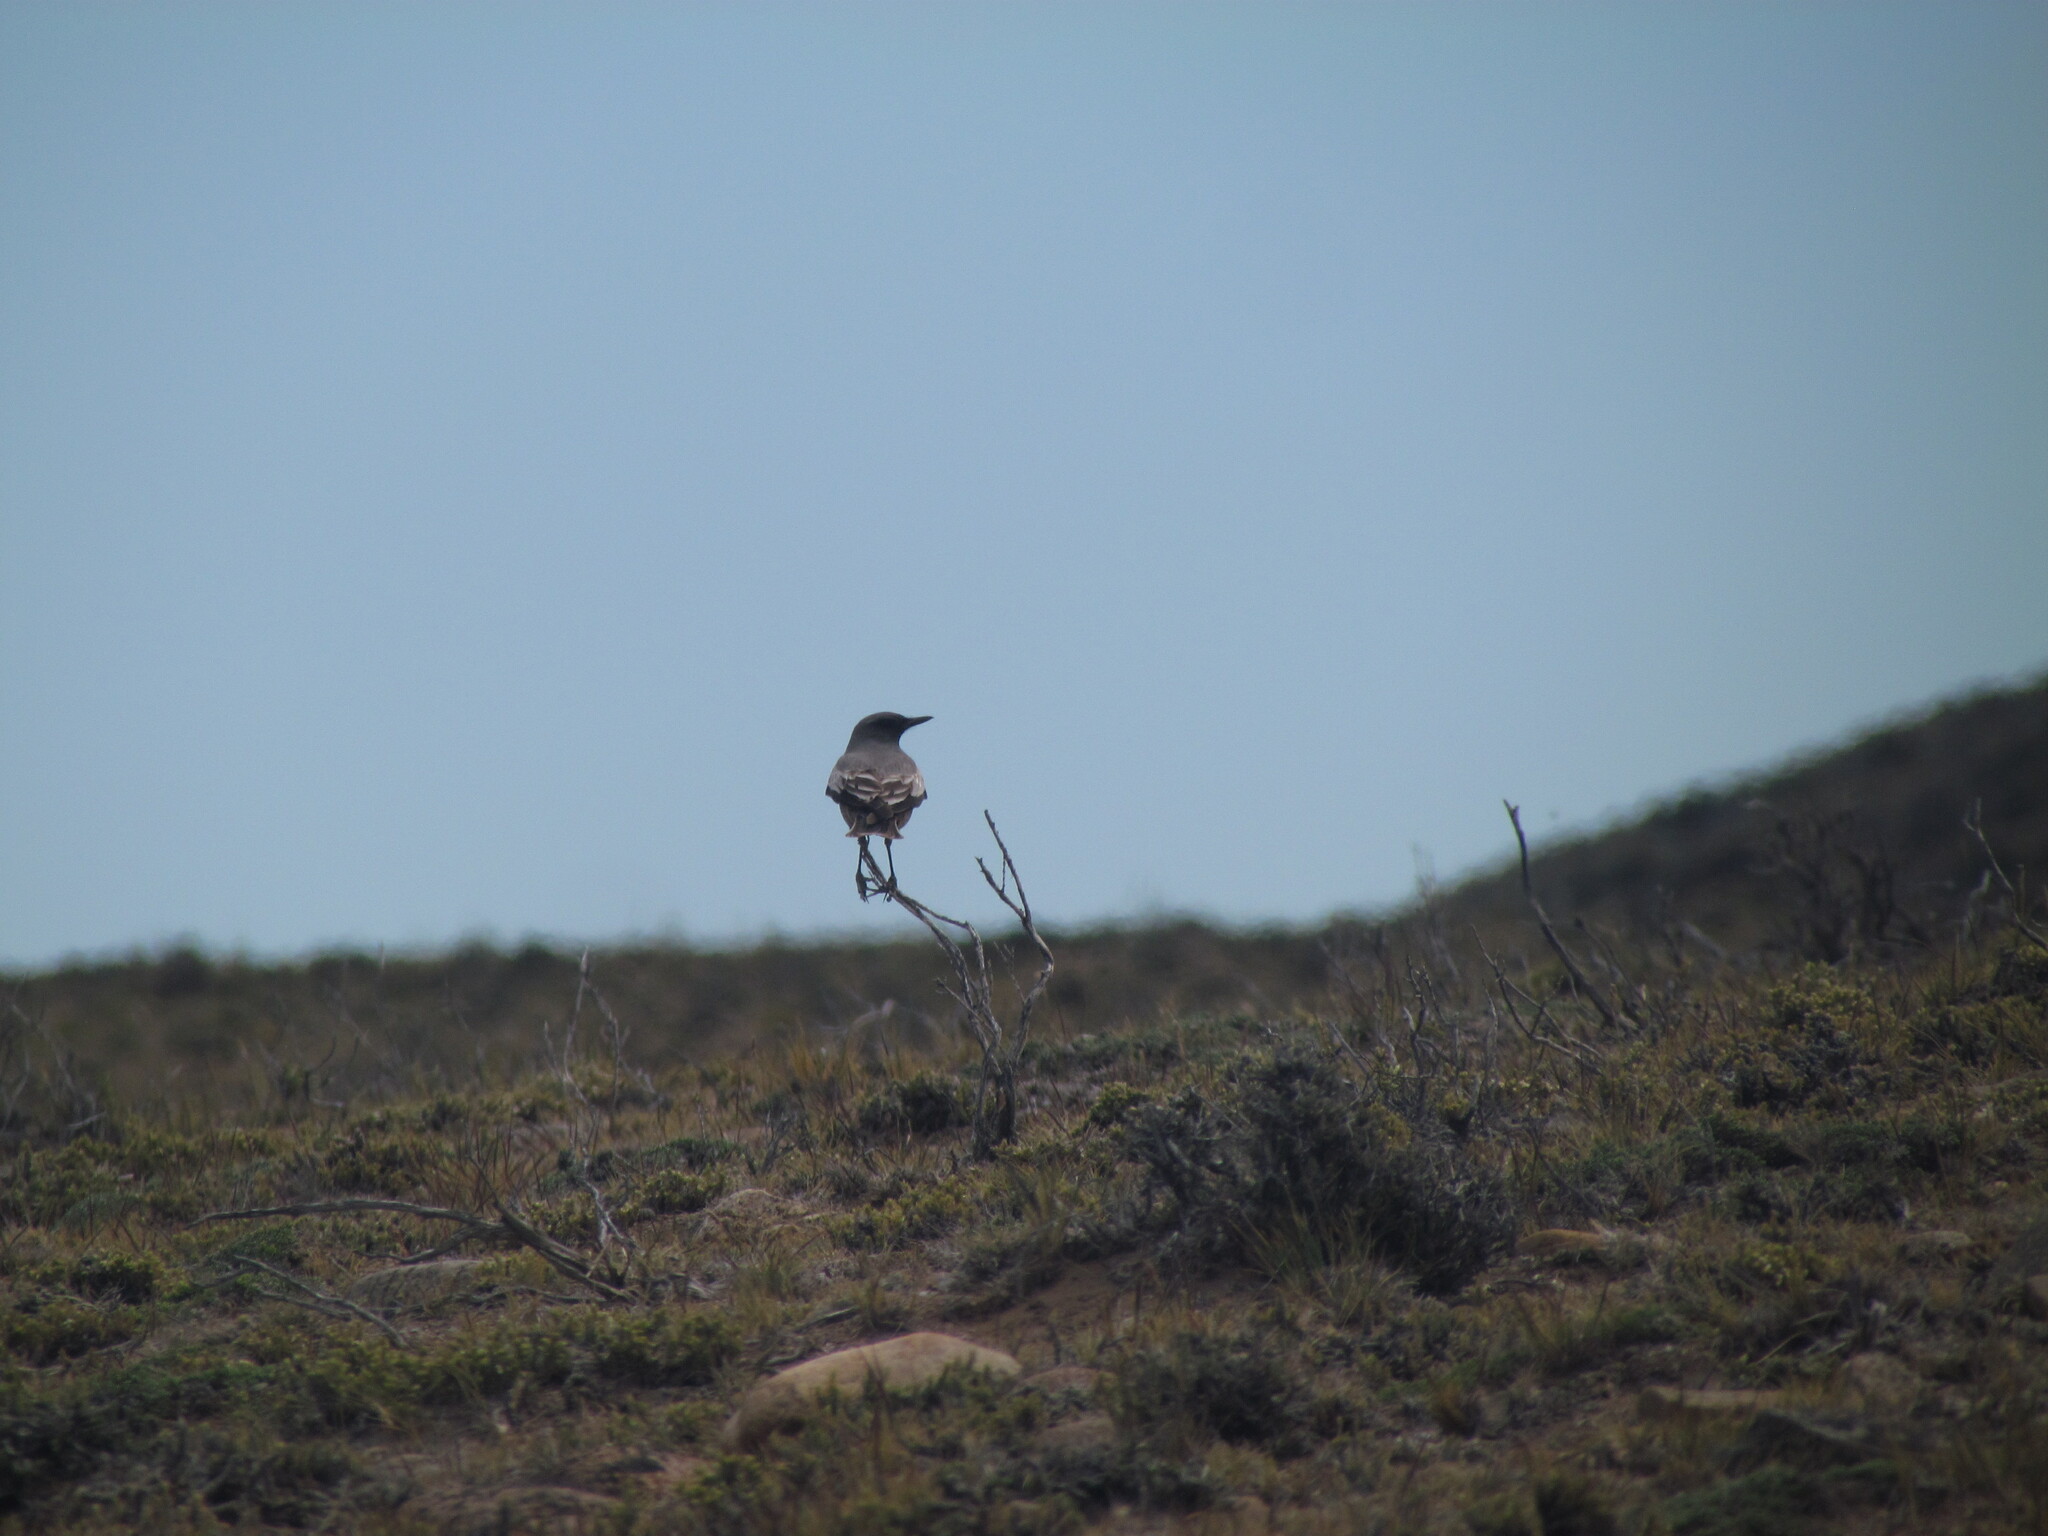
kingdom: Animalia
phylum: Chordata
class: Aves
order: Passeriformes
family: Tyrannidae
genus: Neoxolmis
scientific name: Neoxolmis rufiventris
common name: Chocolate-vented tyrant
